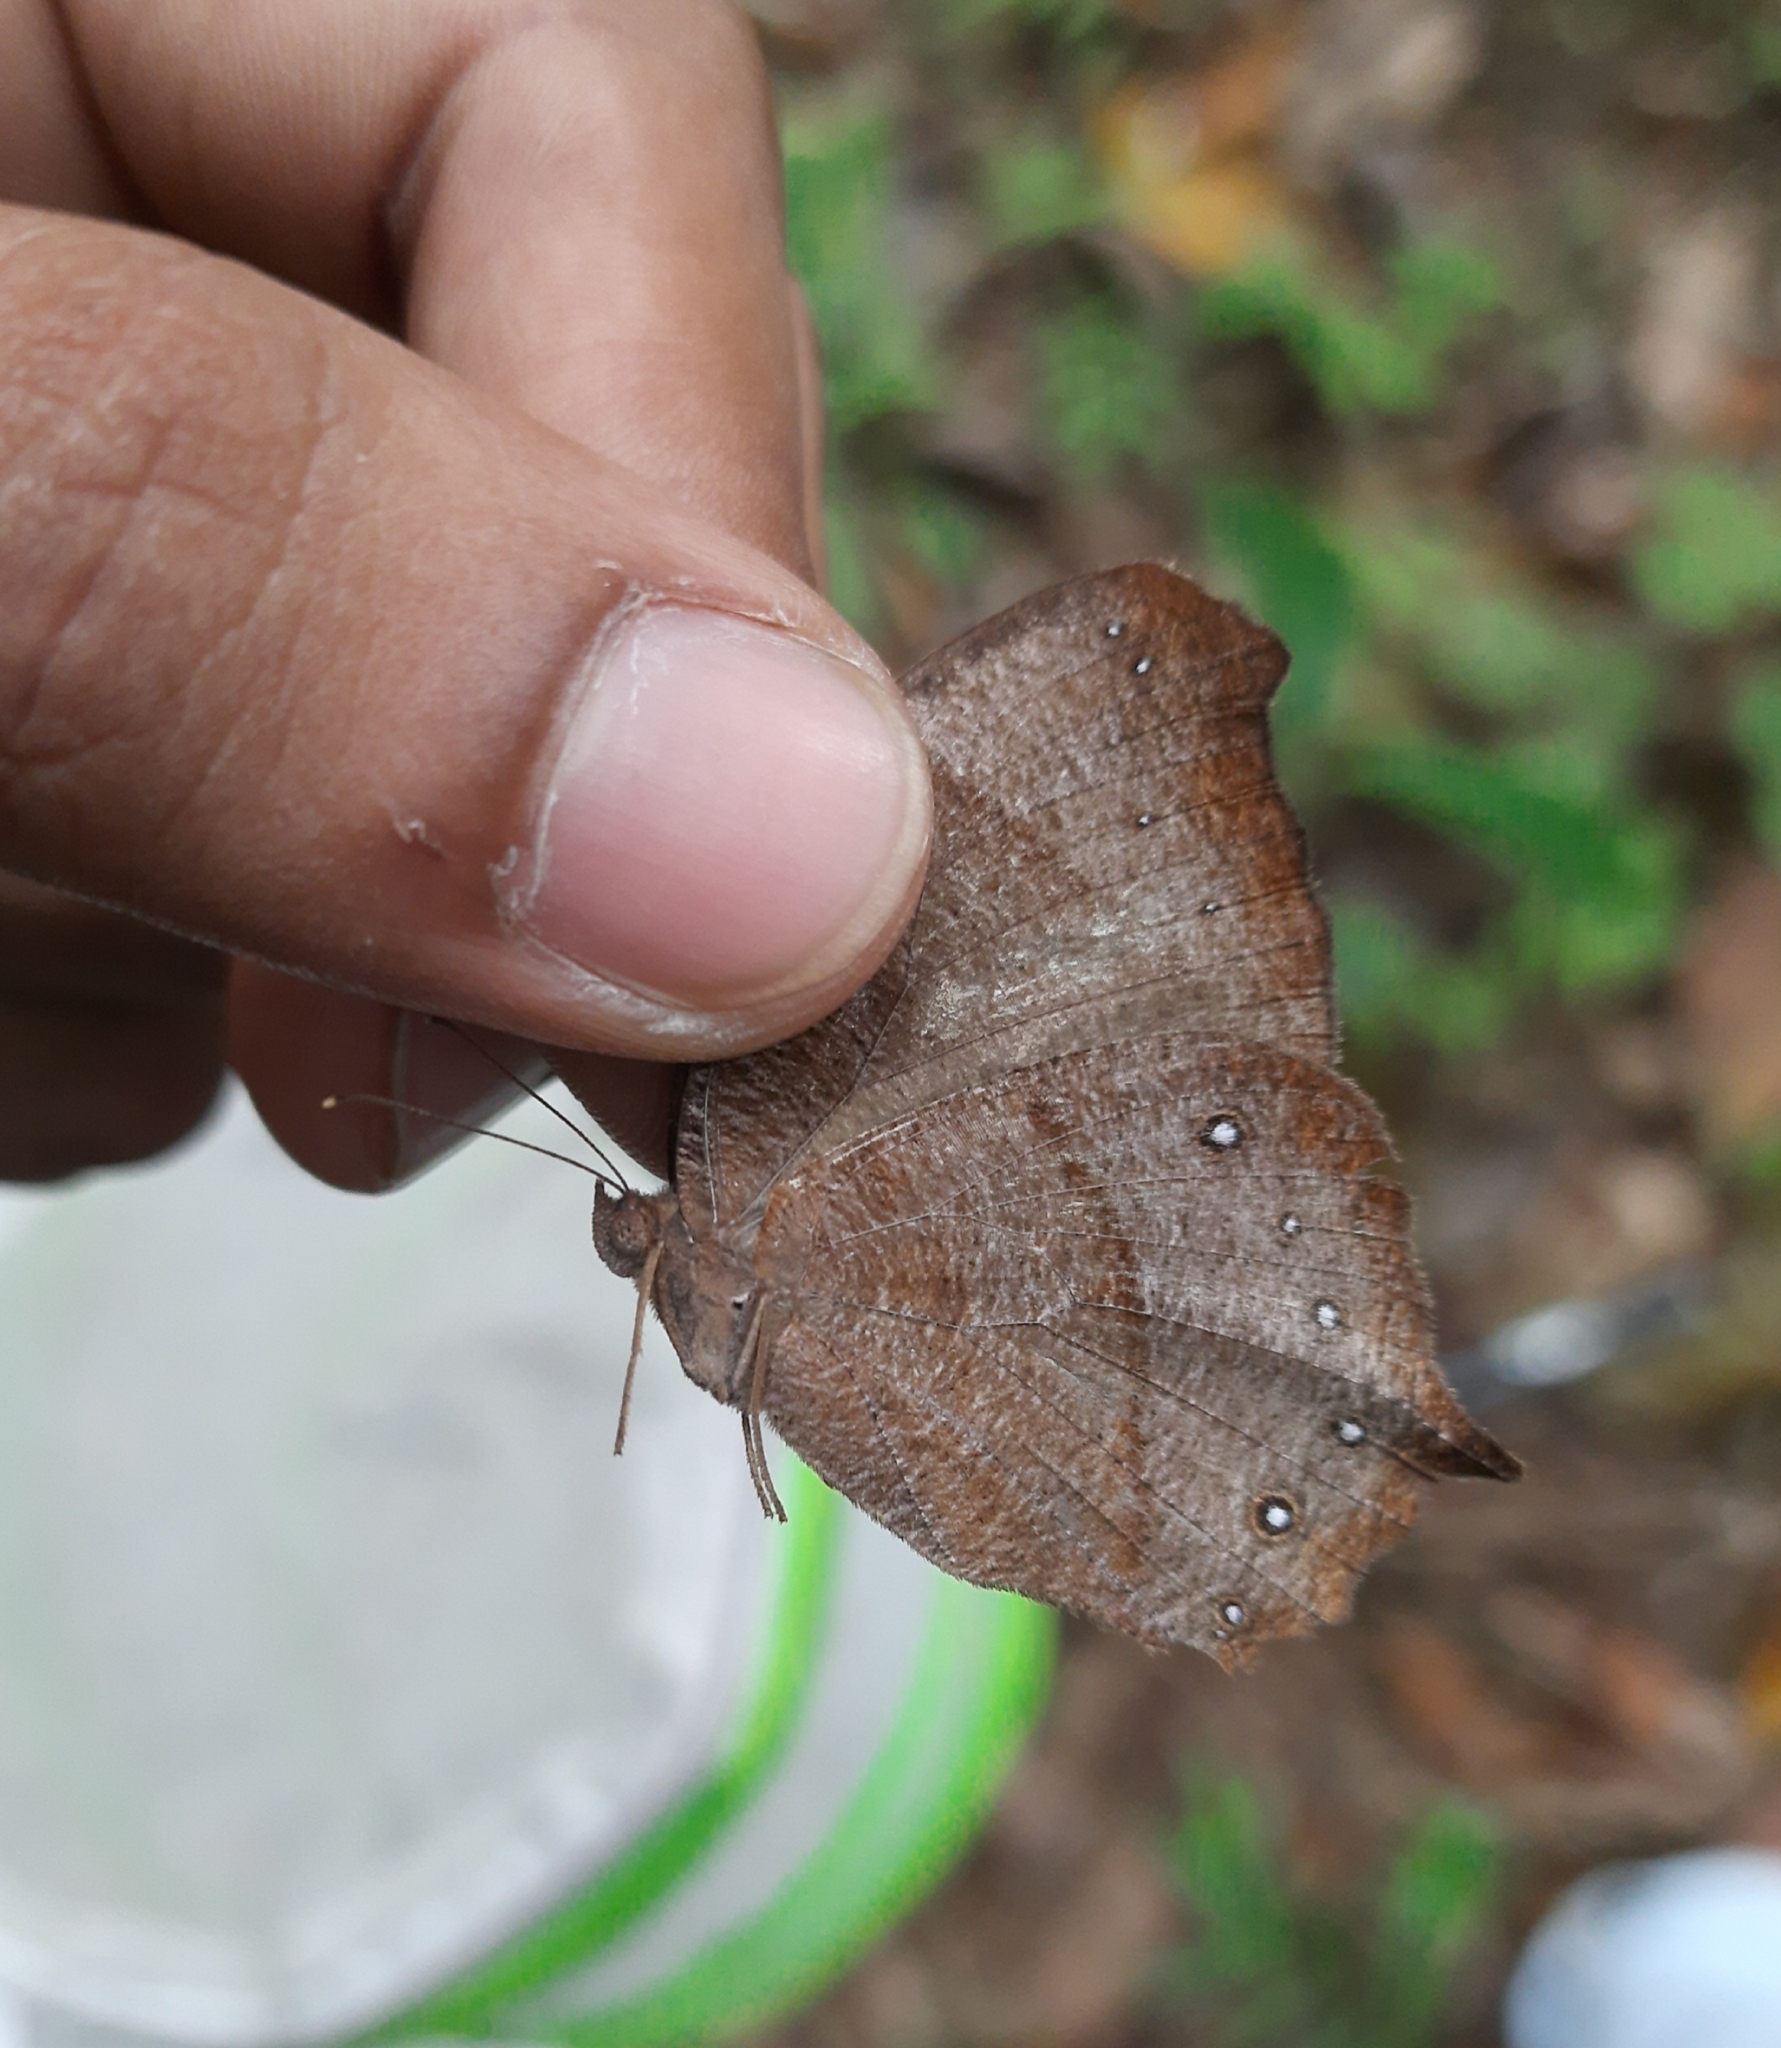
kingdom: Animalia
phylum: Arthropoda
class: Insecta
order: Lepidoptera
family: Nymphalidae
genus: Melanitis
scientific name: Melanitis phedima
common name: Dark evening brown
